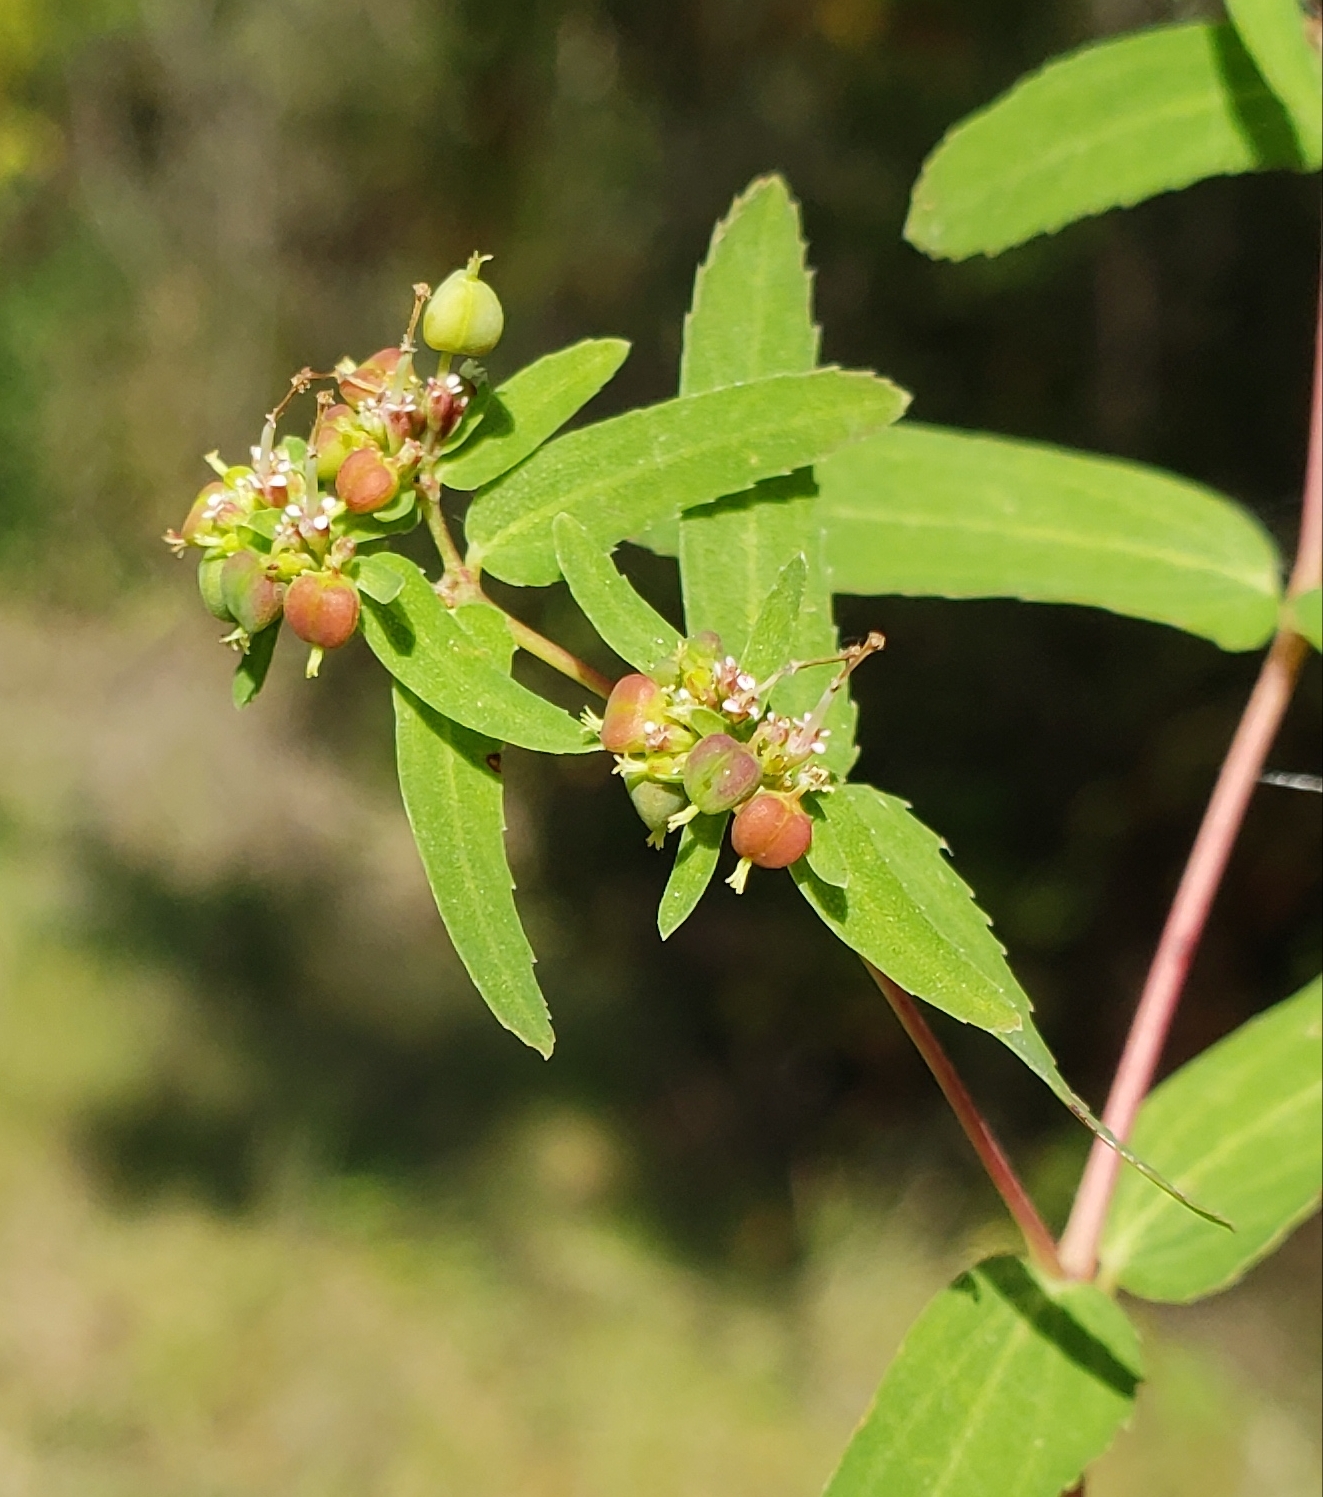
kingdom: Plantae
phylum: Tracheophyta
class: Magnoliopsida
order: Malpighiales
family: Euphorbiaceae
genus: Euphorbia
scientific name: Euphorbia nutans
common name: Eyebane
